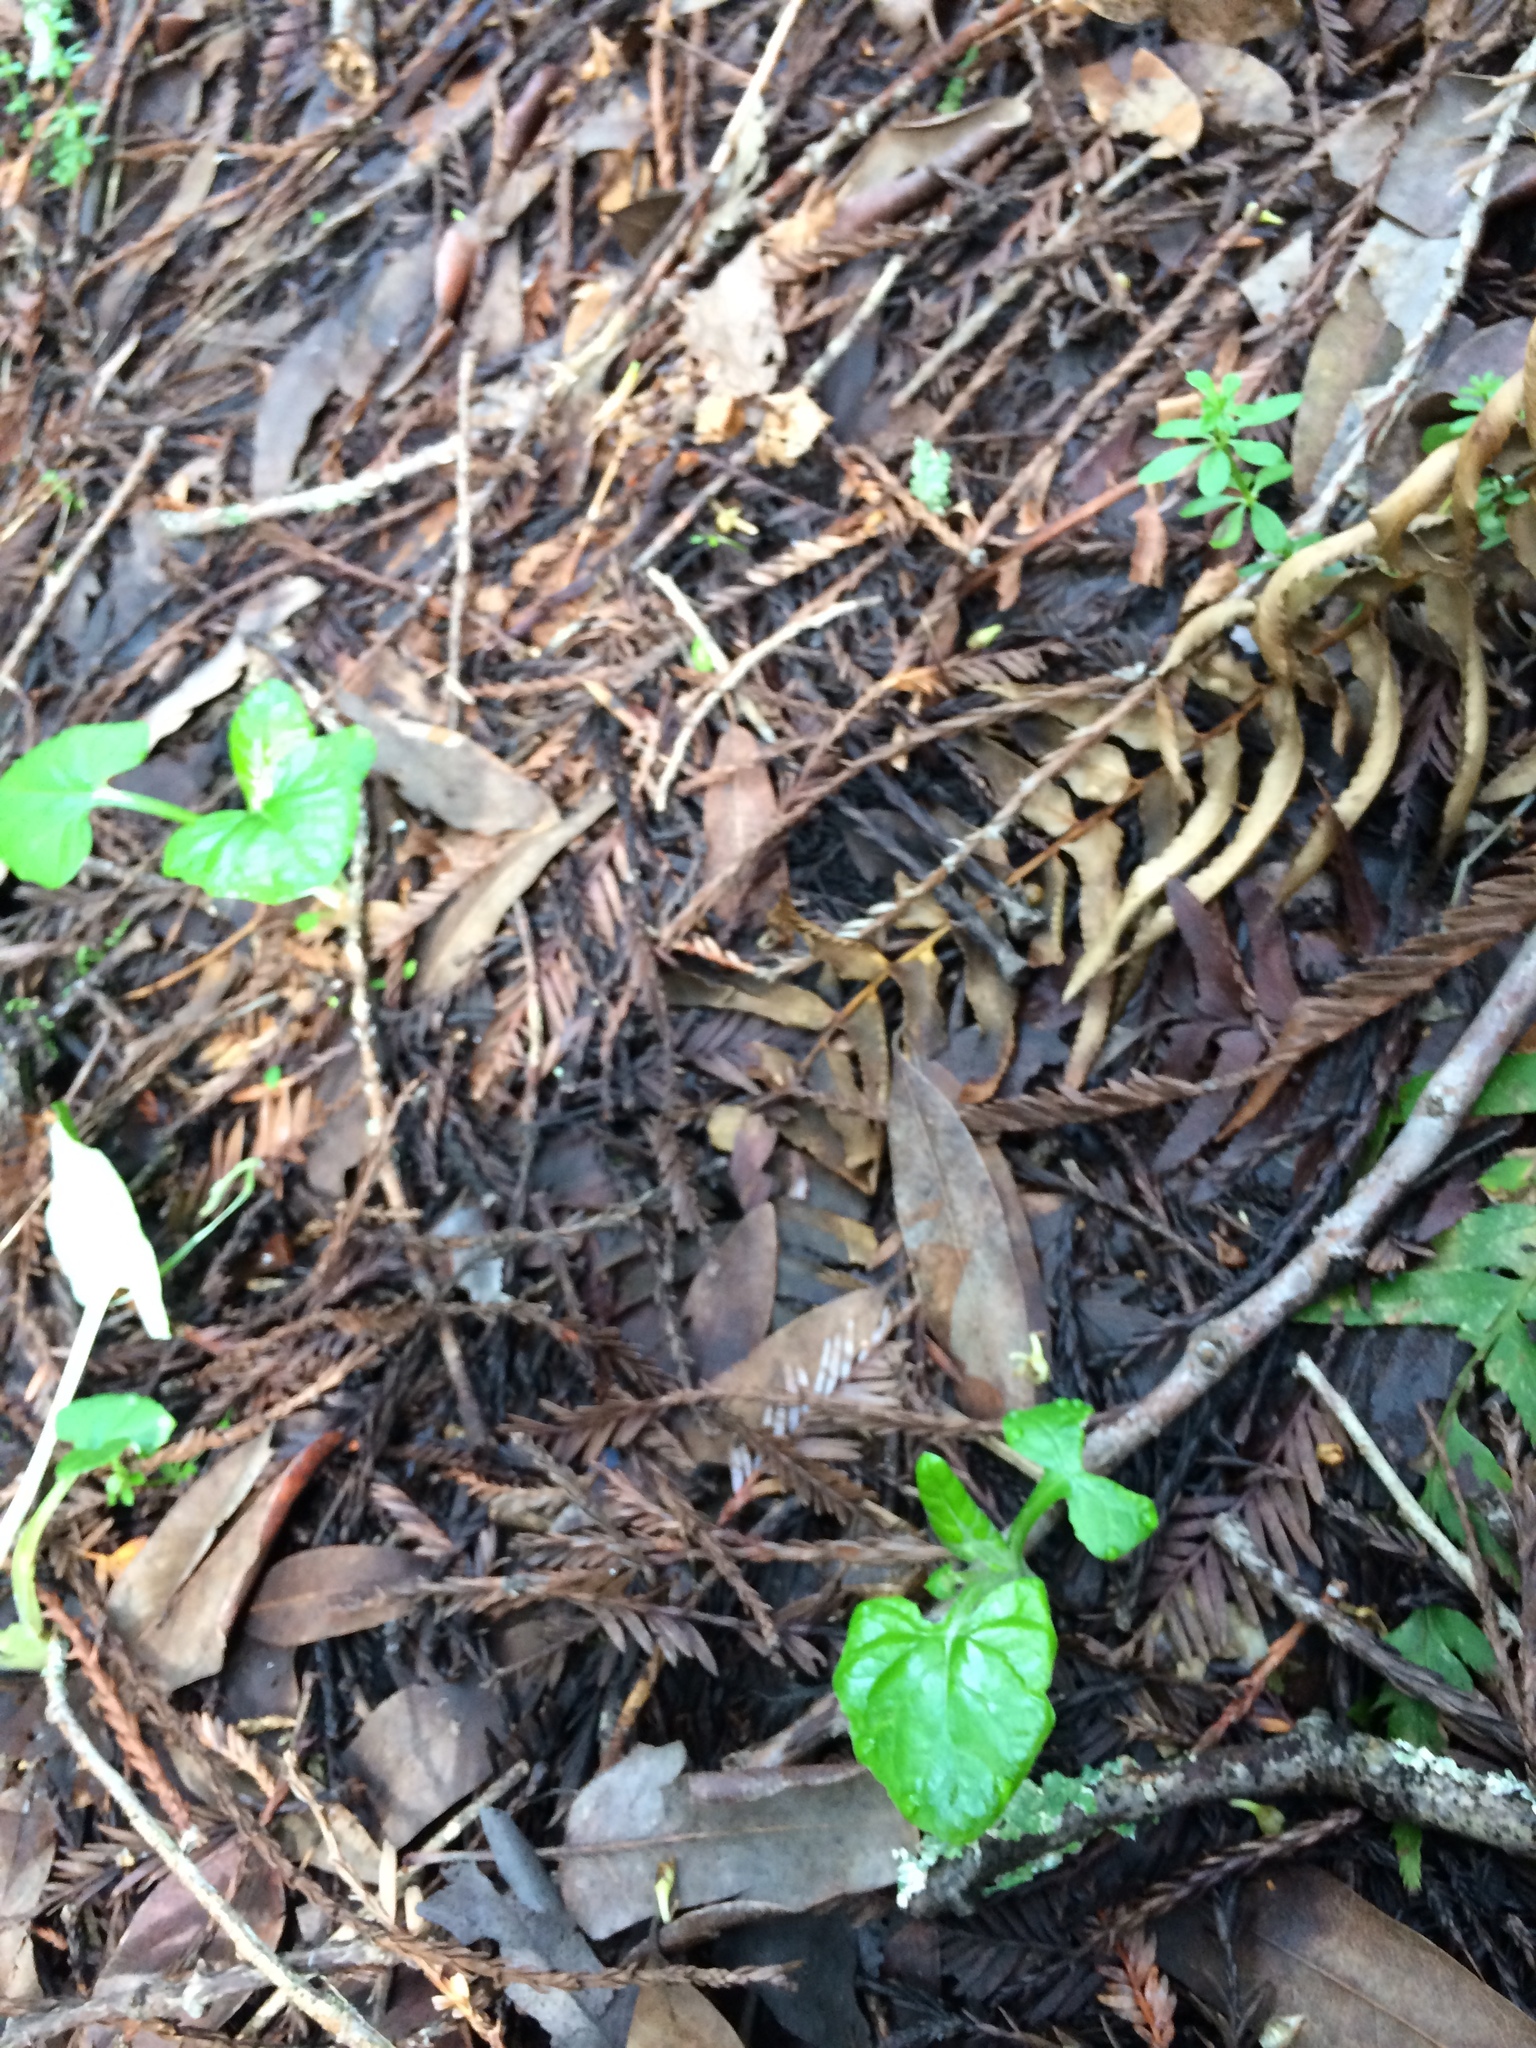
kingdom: Plantae
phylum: Tracheophyta
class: Magnoliopsida
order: Asterales
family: Asteraceae
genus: Adenocaulon
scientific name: Adenocaulon bicolor
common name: Trailplant
